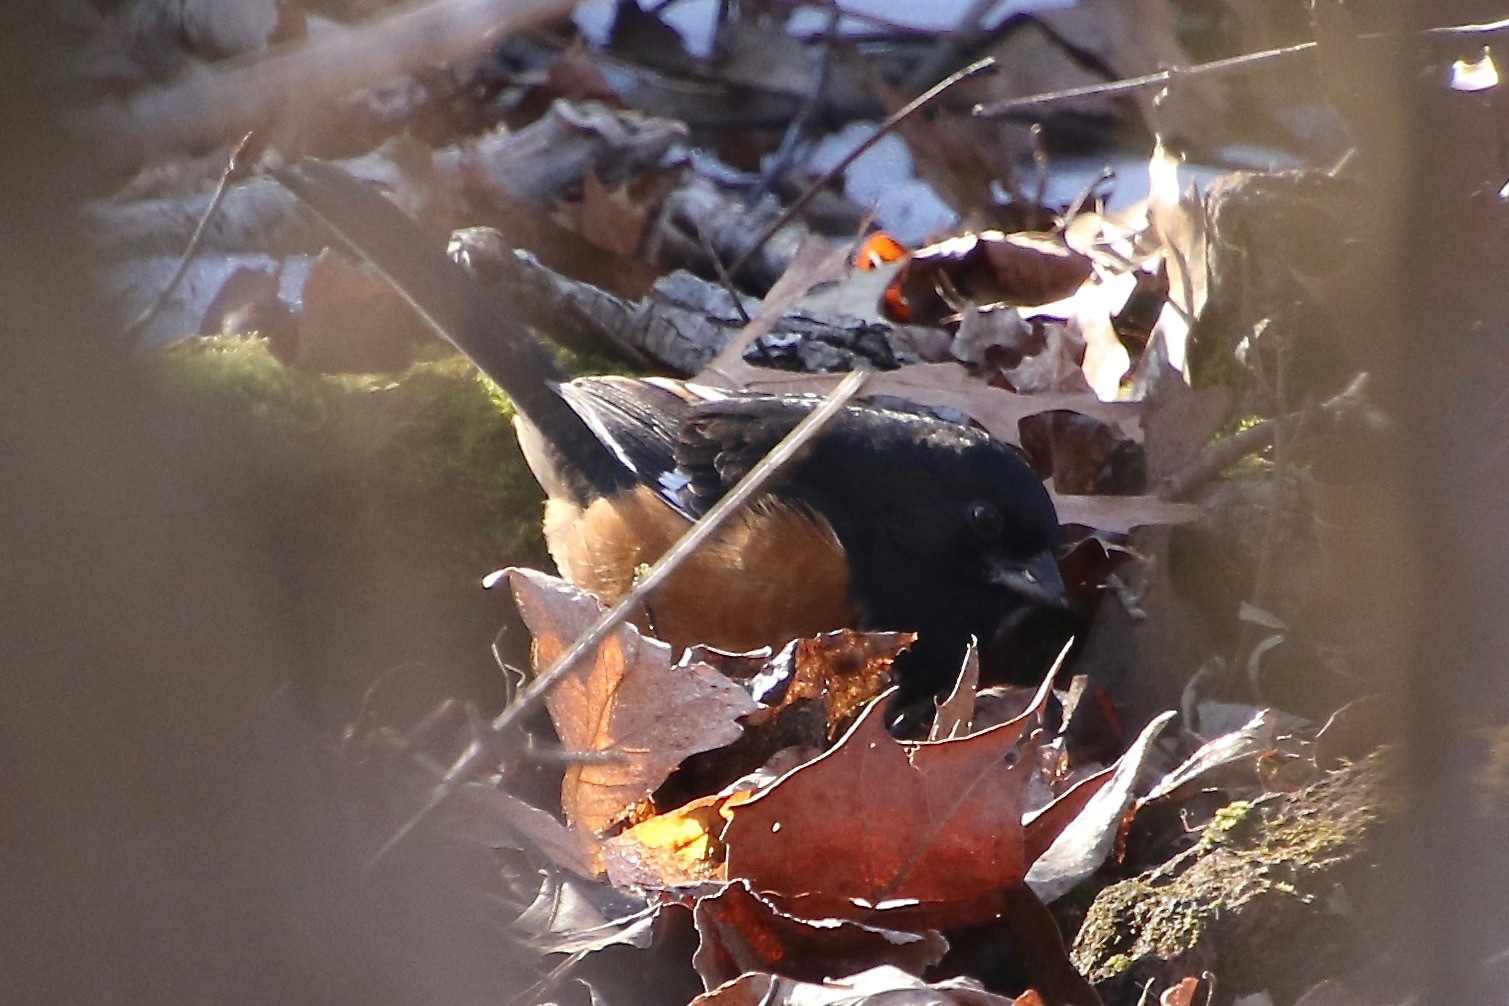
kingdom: Animalia
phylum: Chordata
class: Aves
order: Passeriformes
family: Passerellidae
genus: Pipilo
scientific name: Pipilo erythrophthalmus
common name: Eastern towhee
